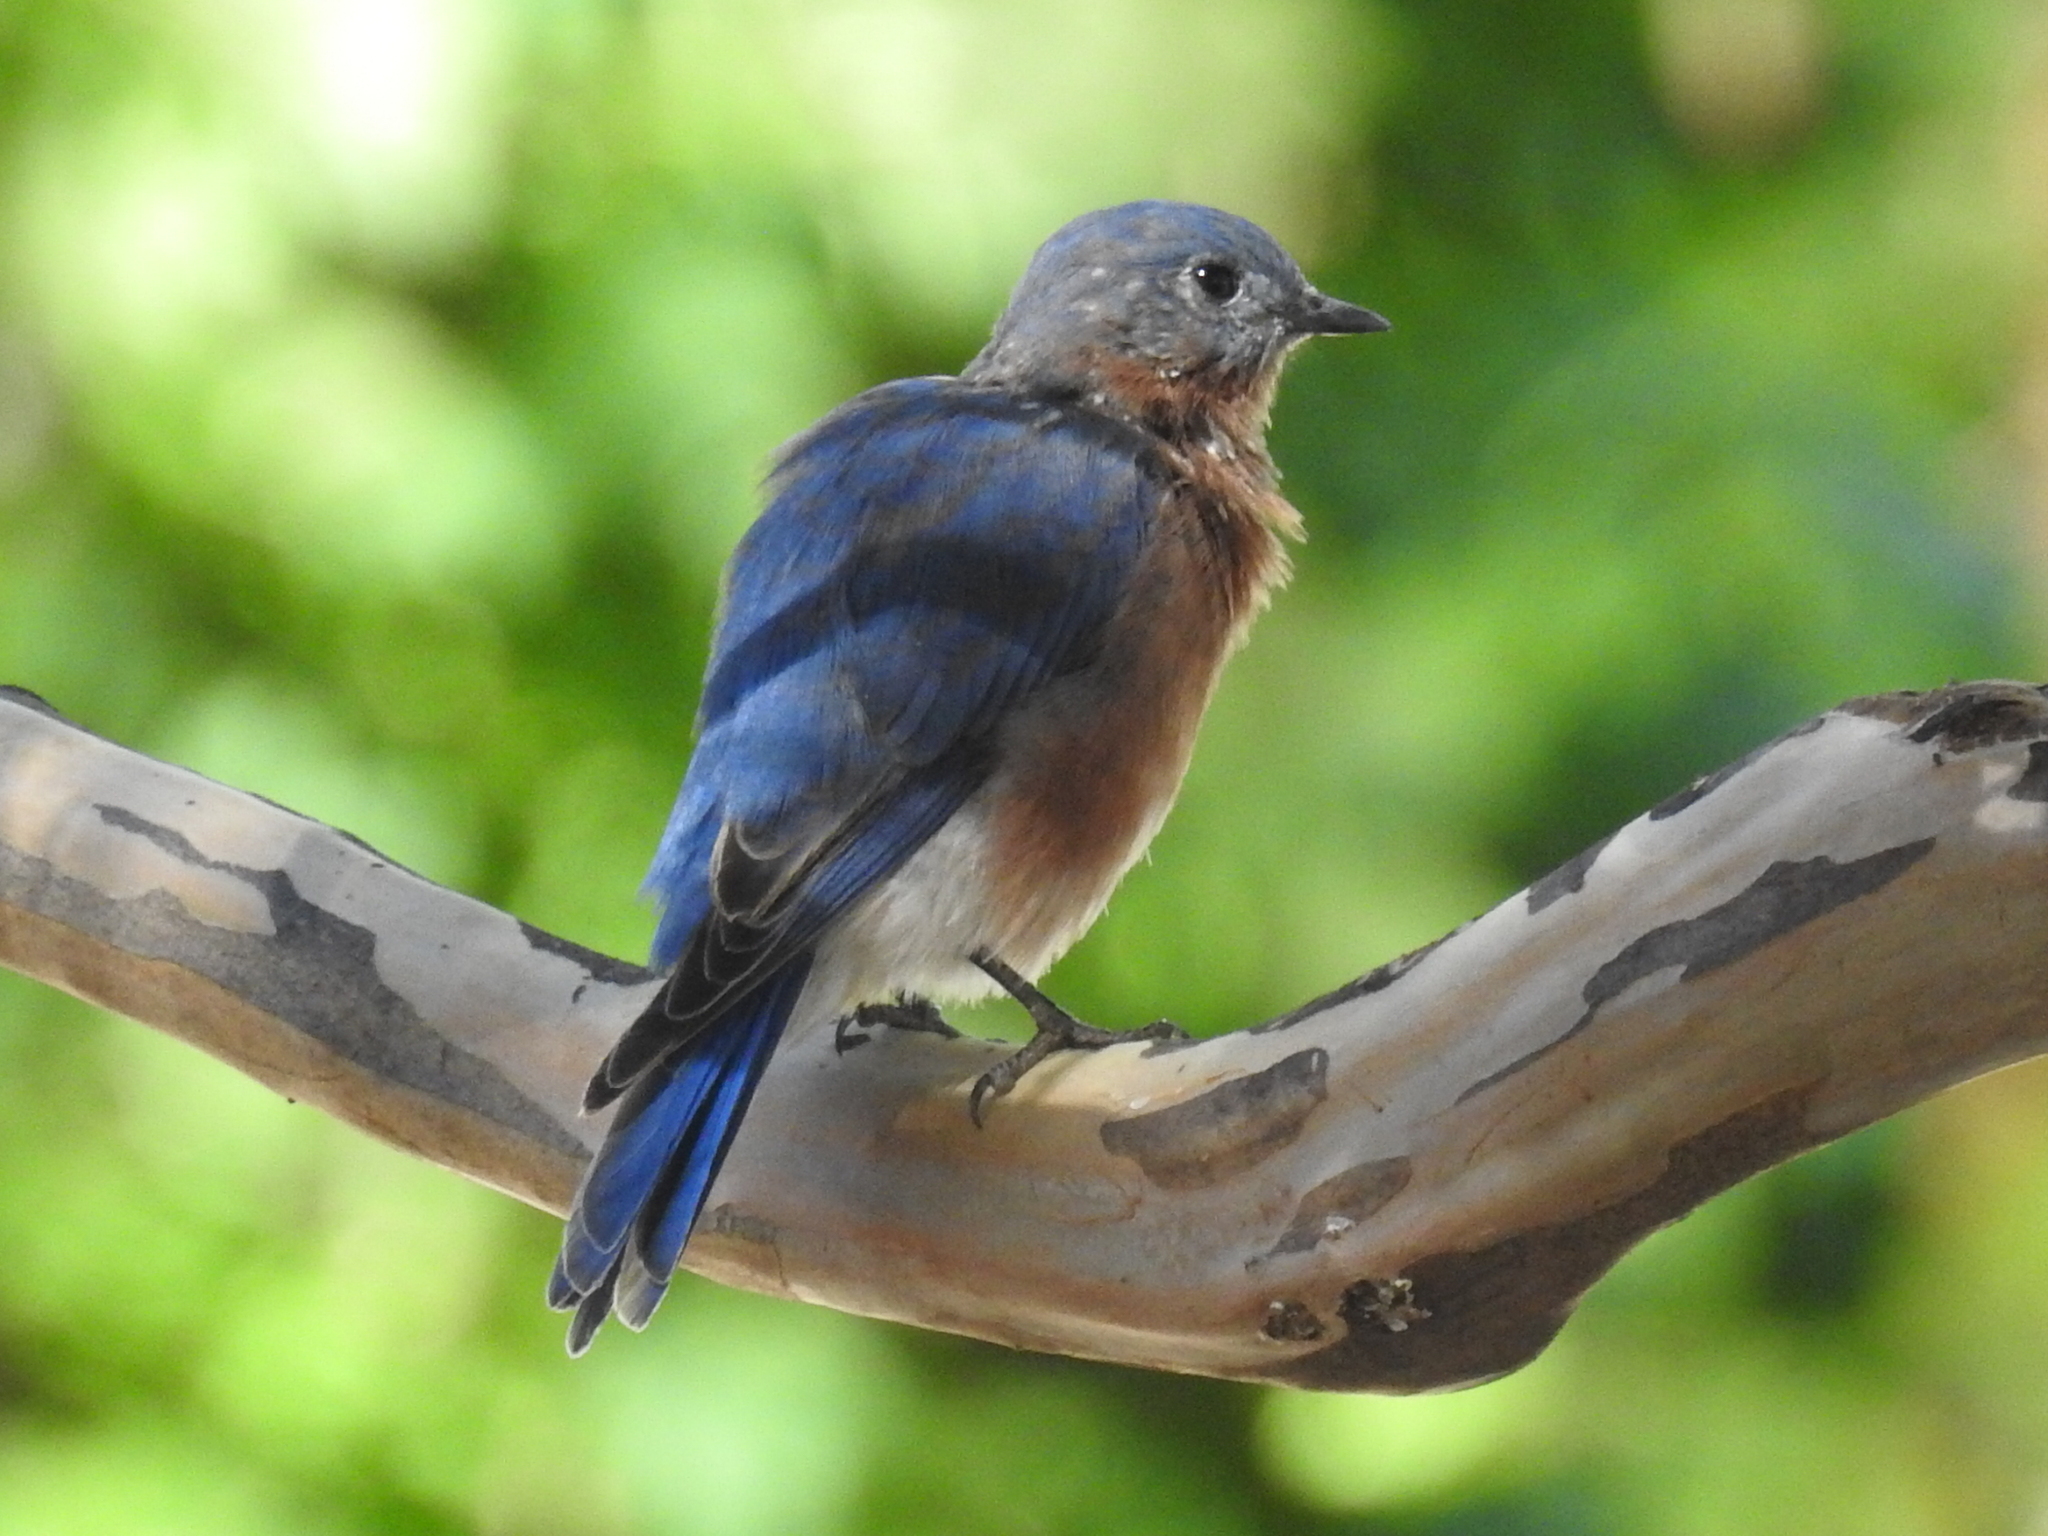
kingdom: Animalia
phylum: Chordata
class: Aves
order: Passeriformes
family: Turdidae
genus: Sialia
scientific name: Sialia sialis
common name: Eastern bluebird
